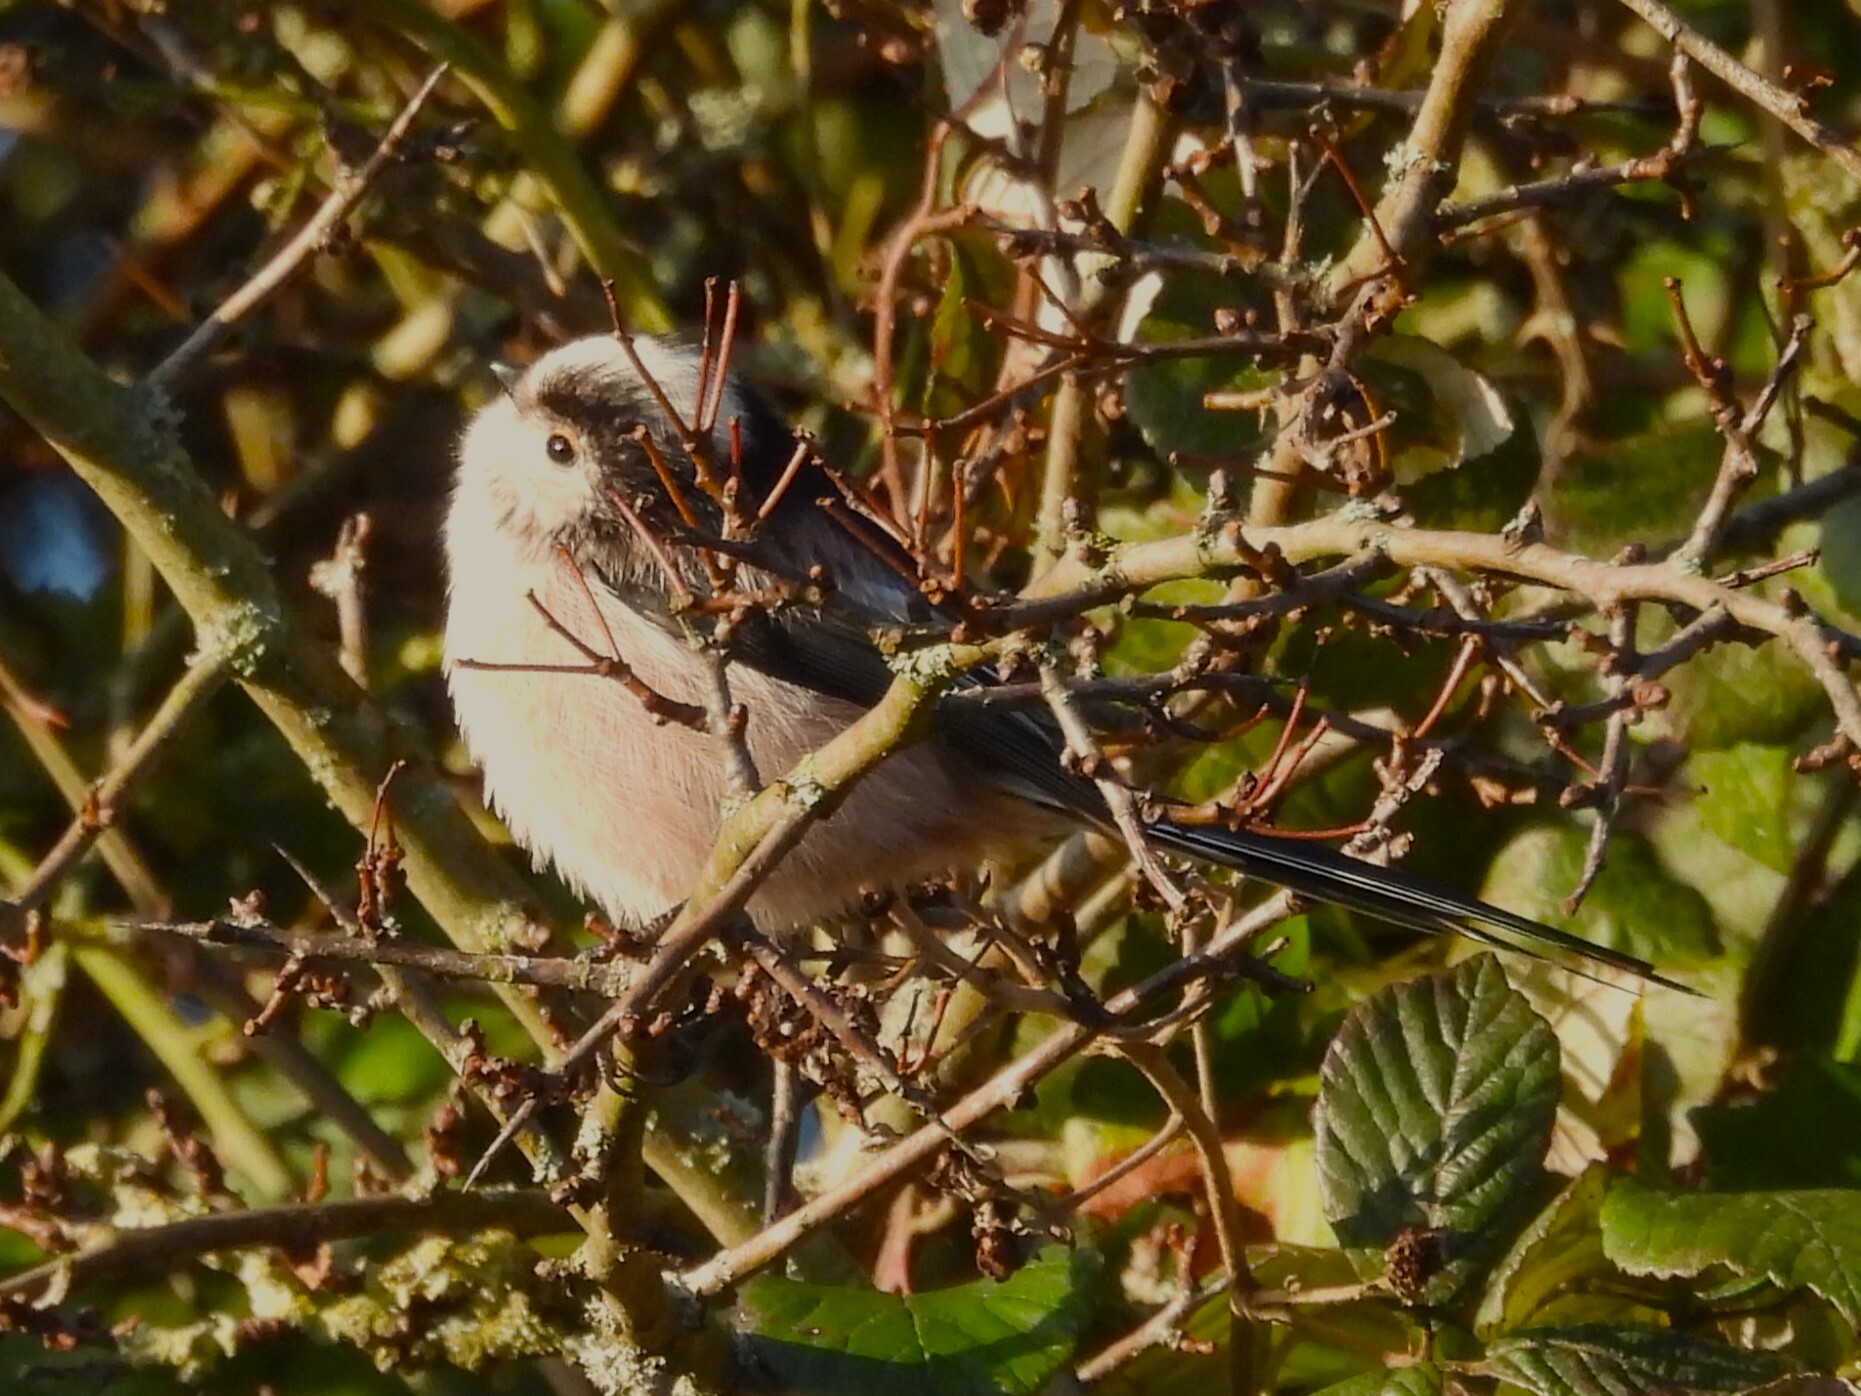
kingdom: Animalia
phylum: Chordata
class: Aves
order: Passeriformes
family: Aegithalidae
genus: Aegithalos
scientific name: Aegithalos caudatus
